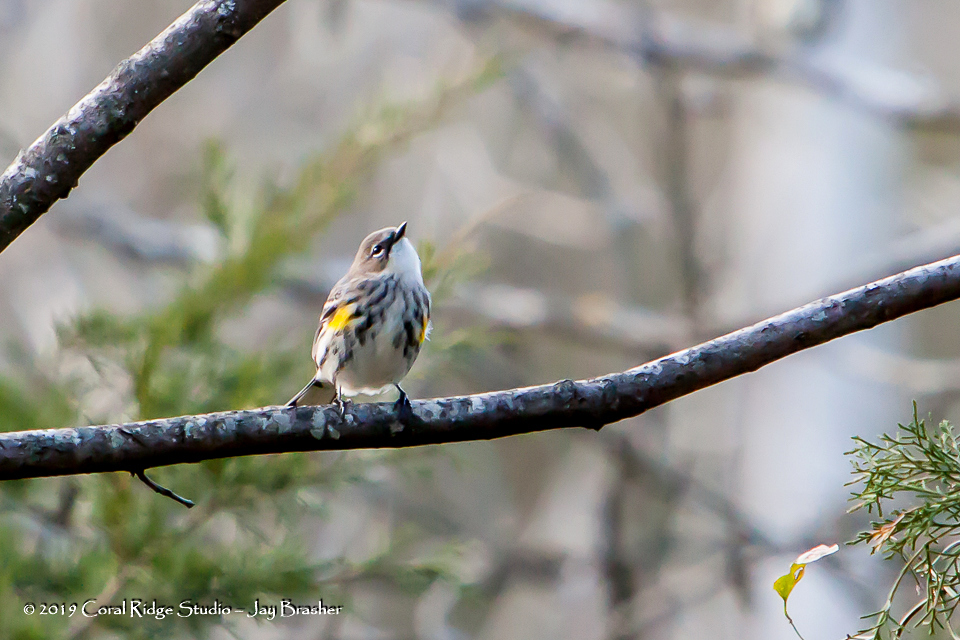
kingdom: Animalia
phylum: Chordata
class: Aves
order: Passeriformes
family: Parulidae
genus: Setophaga
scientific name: Setophaga coronata
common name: Myrtle warbler
